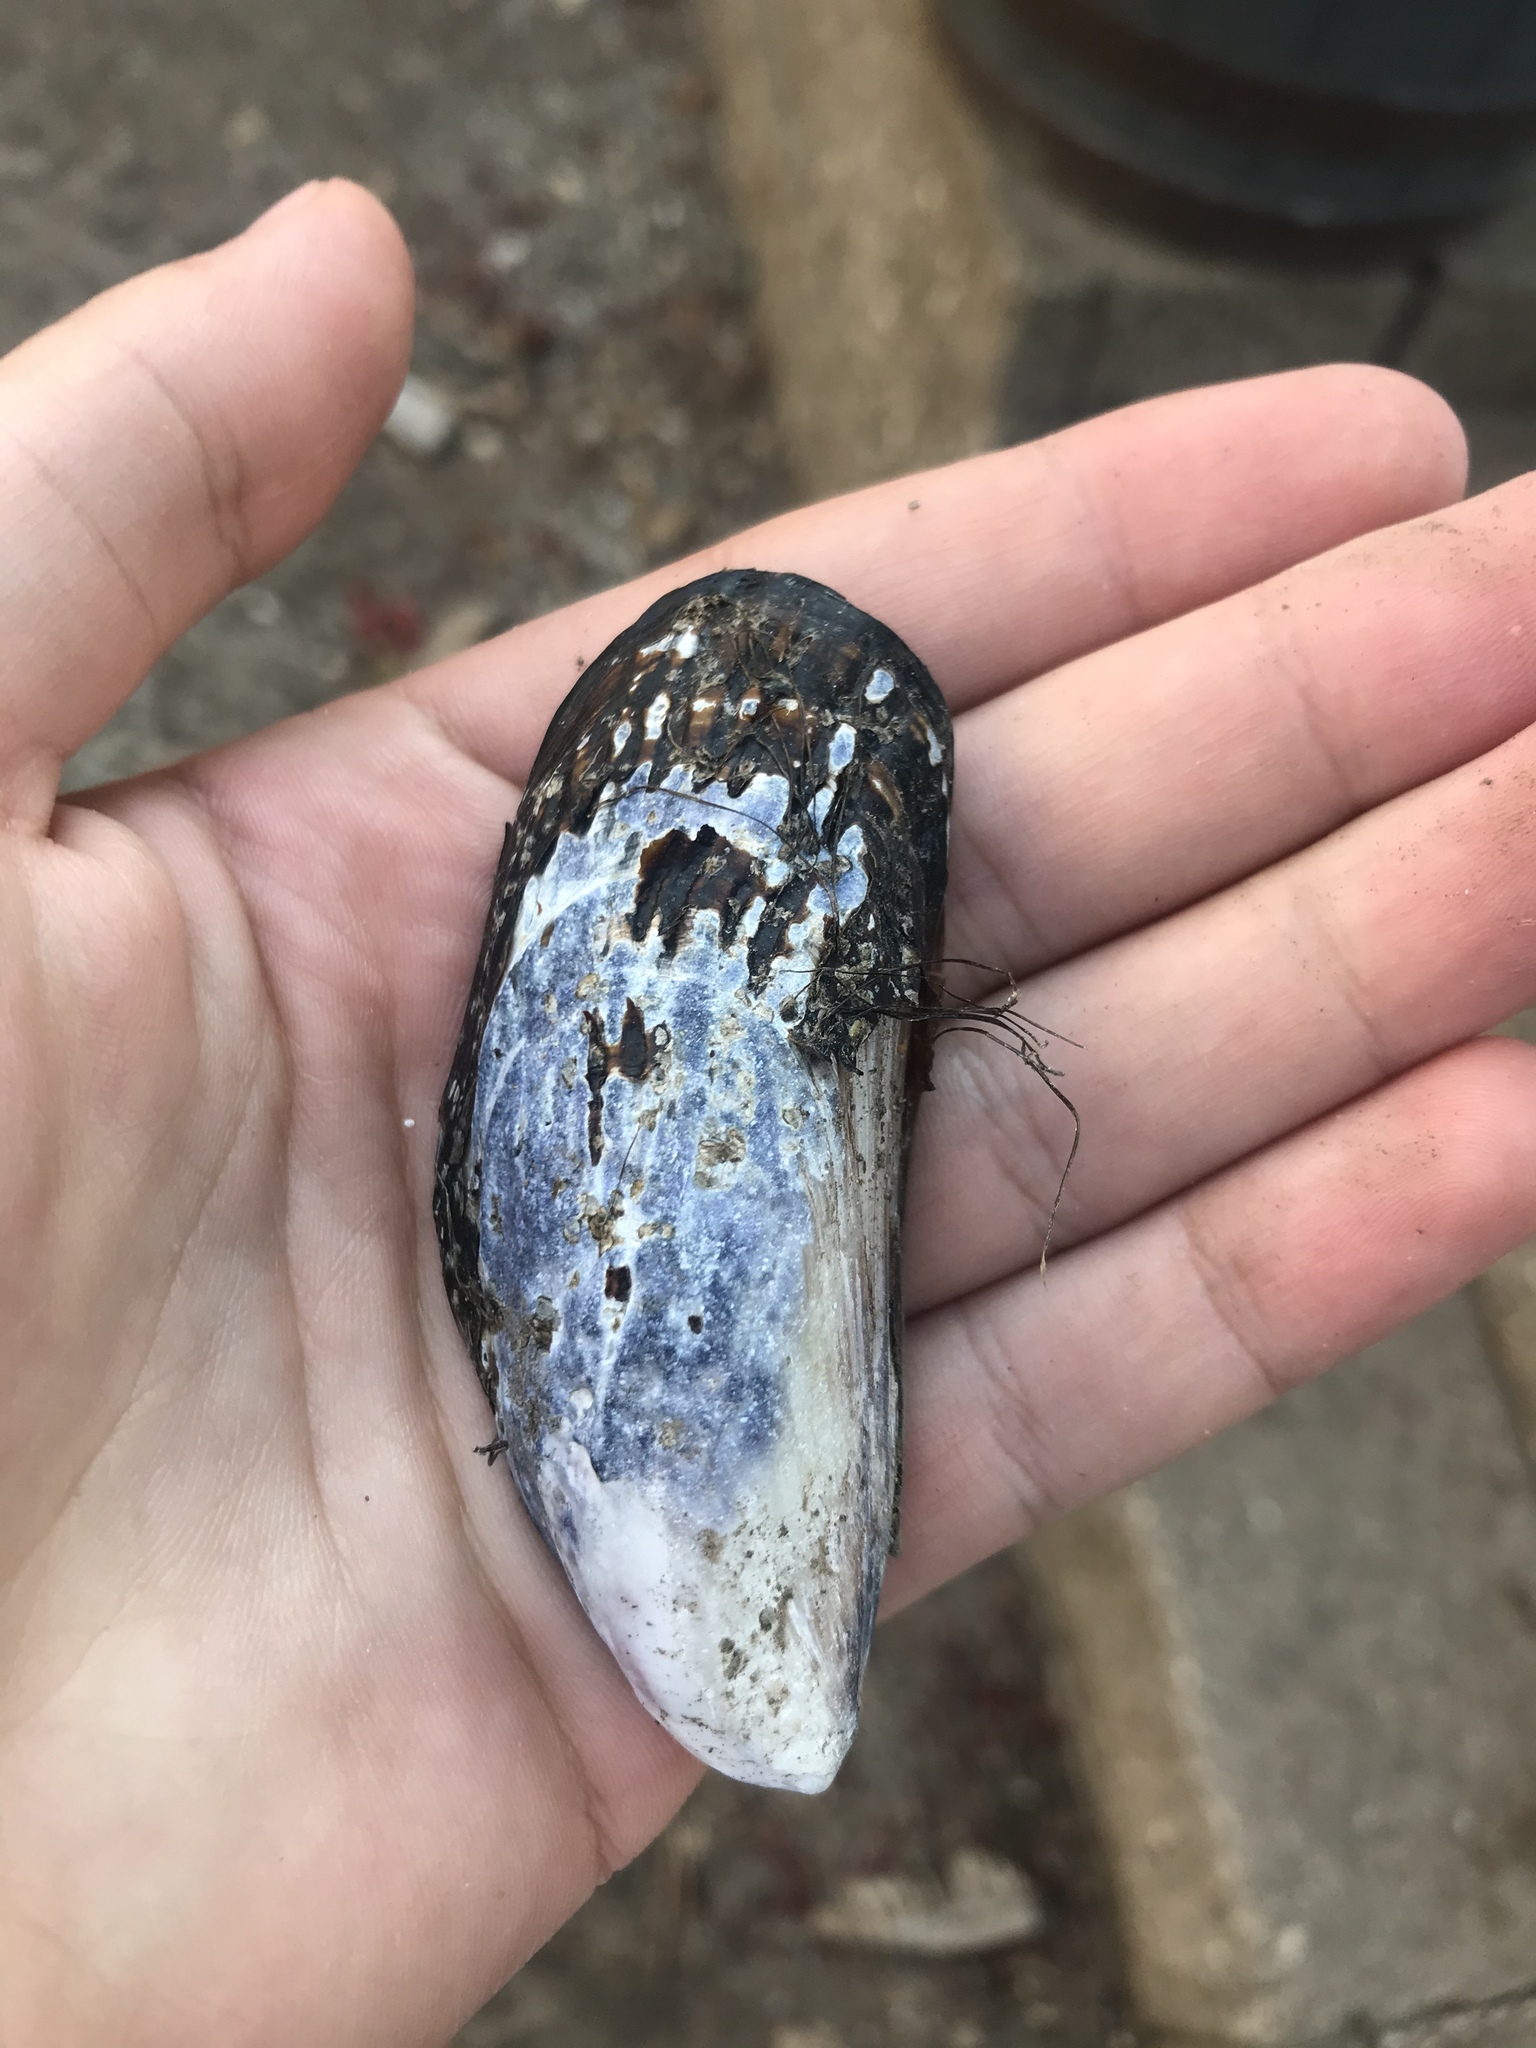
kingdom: Animalia
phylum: Mollusca
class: Bivalvia
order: Mytilida
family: Mytilidae
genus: Mytilus
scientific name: Mytilus californianus
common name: California mussel
